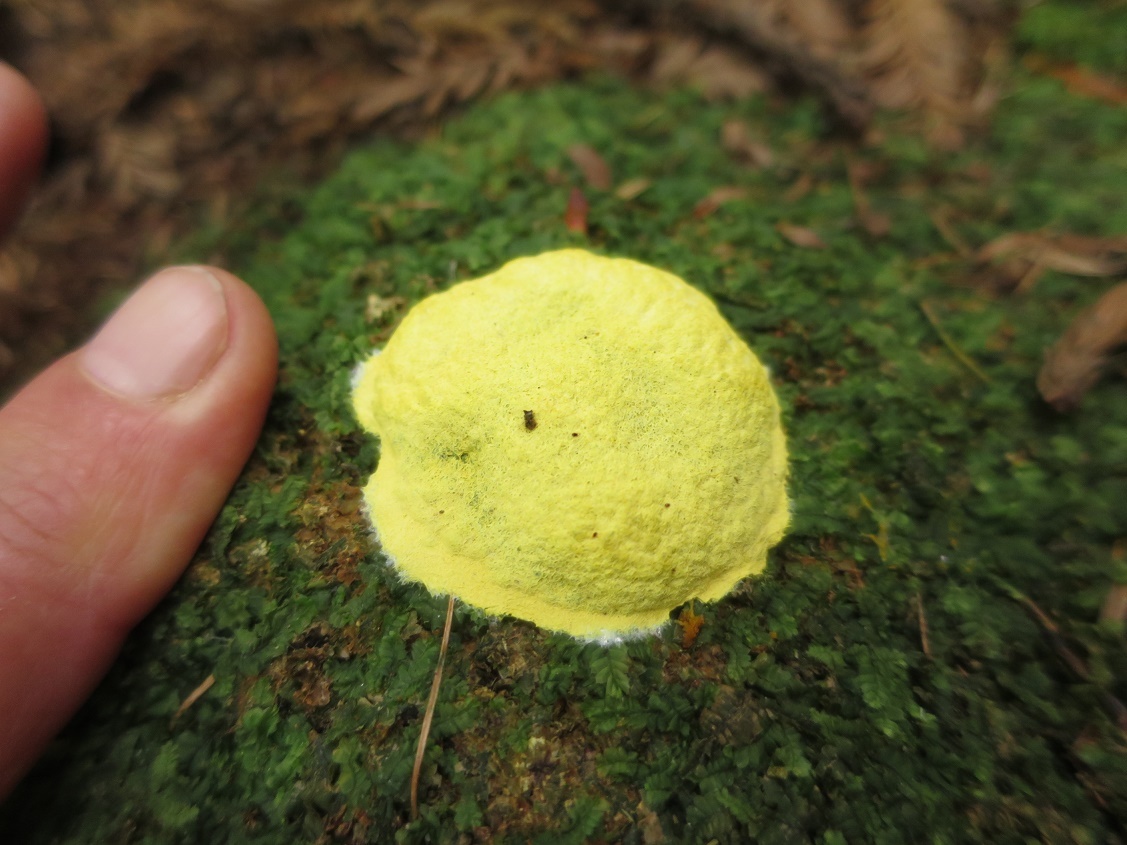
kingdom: Protozoa
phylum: Mycetozoa
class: Myxomycetes
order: Physarales
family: Physaraceae
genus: Fuligo
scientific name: Fuligo septica
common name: Dog vomit slime mold
